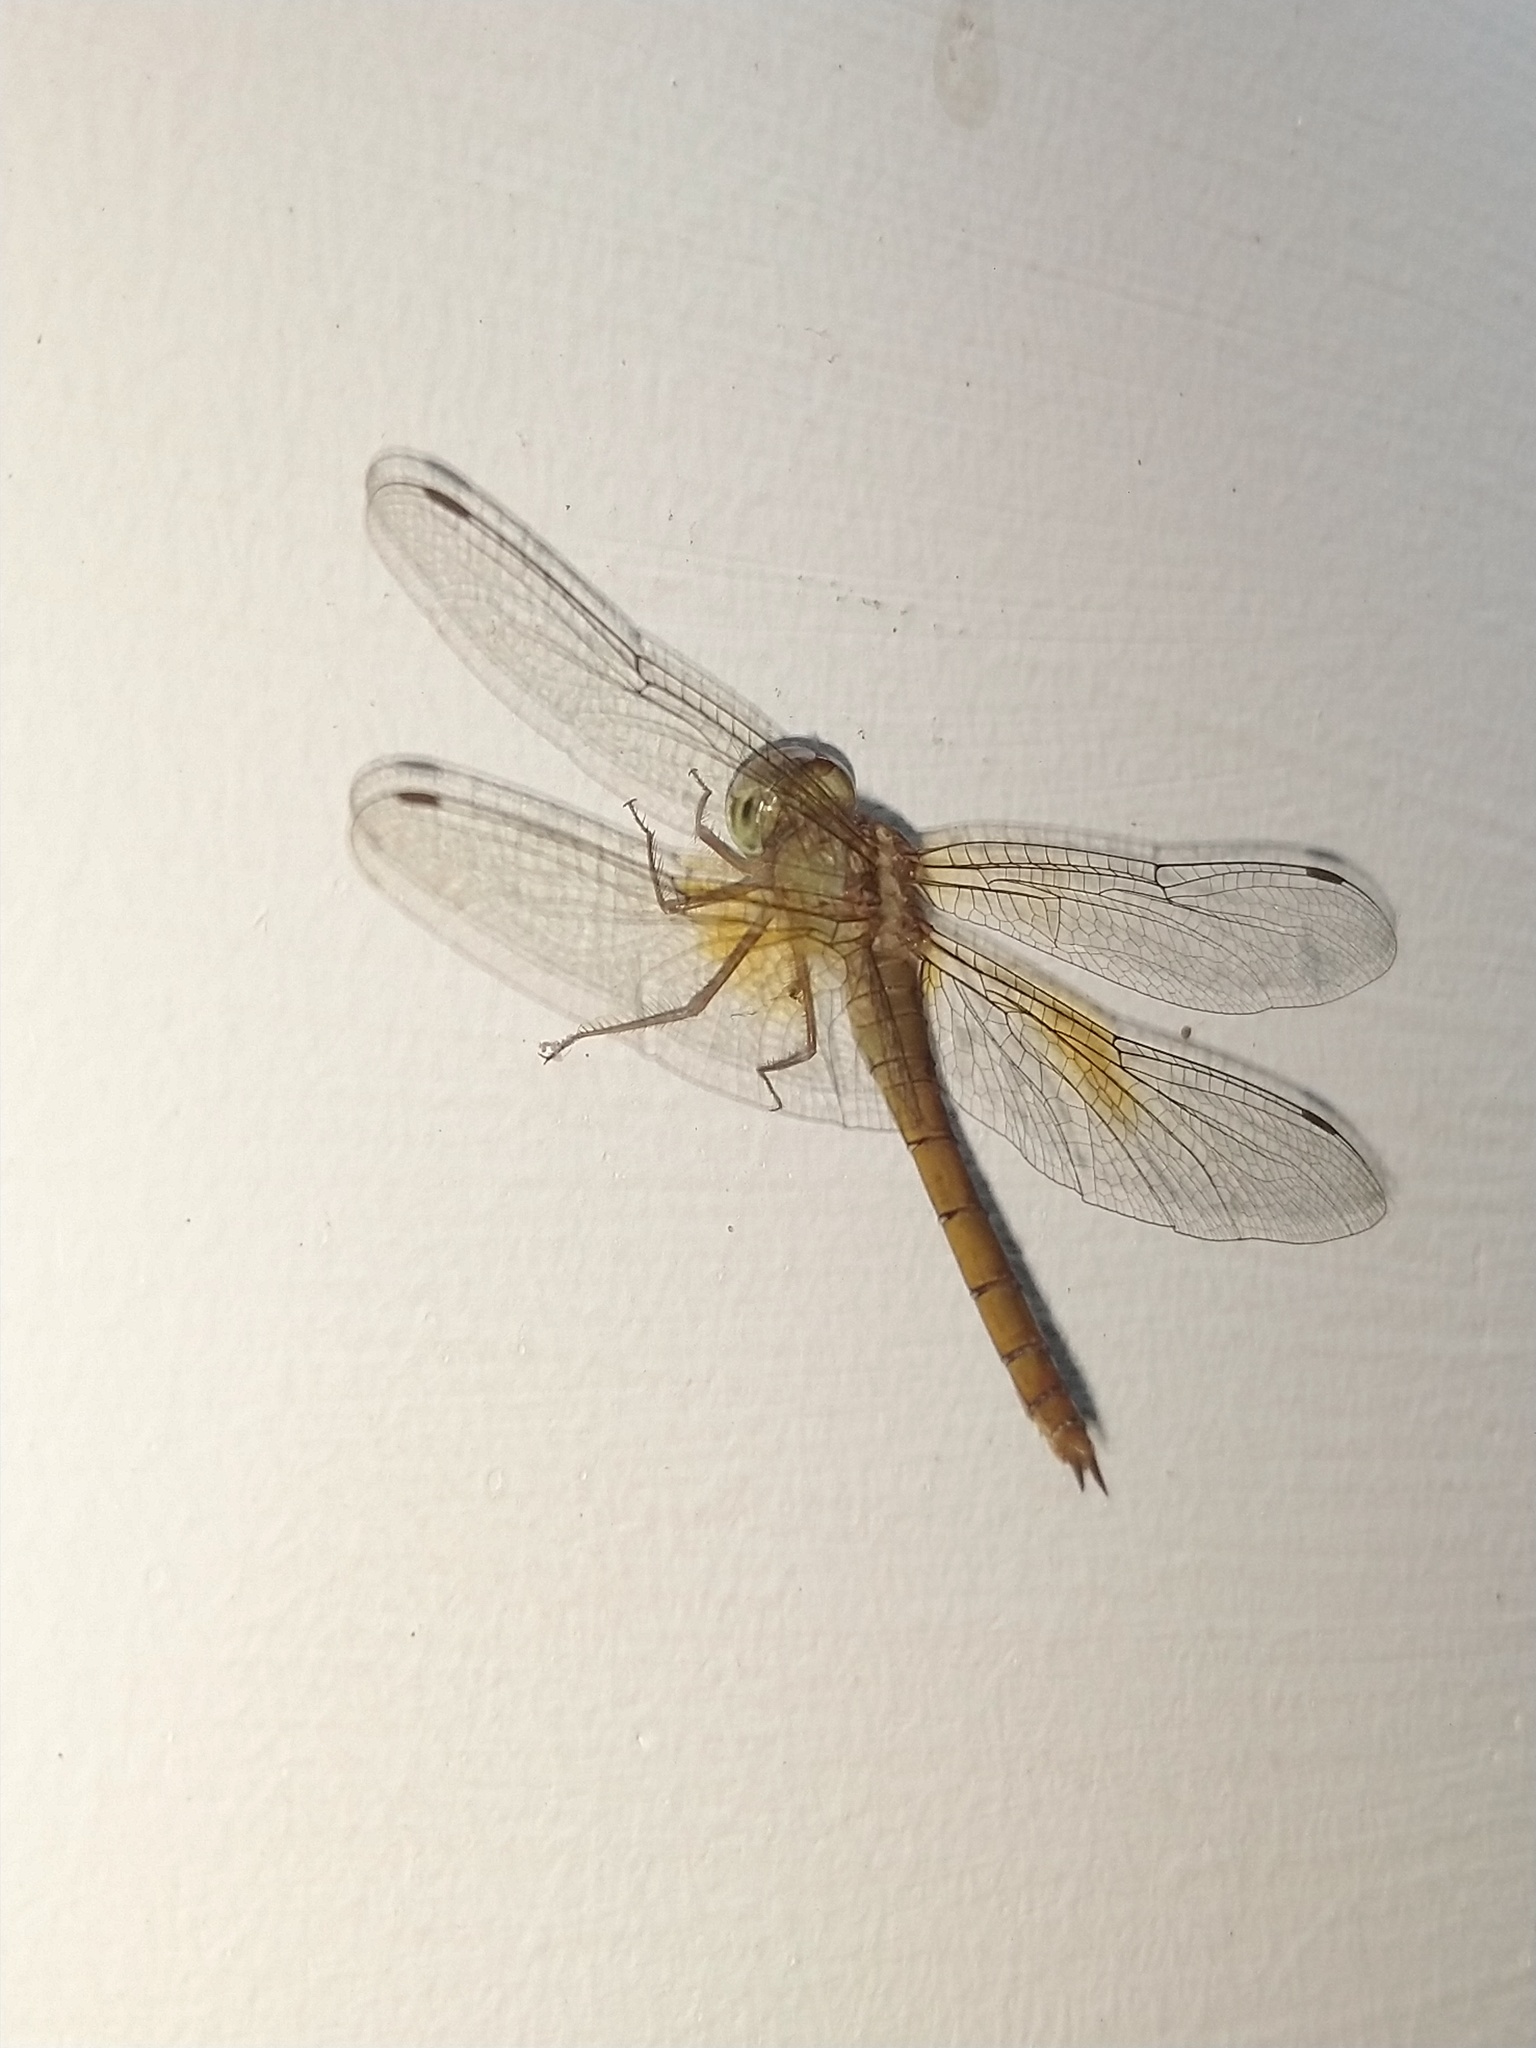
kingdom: Animalia
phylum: Arthropoda
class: Insecta
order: Odonata
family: Libellulidae
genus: Tholymis
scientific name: Tholymis tillarga
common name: Coral-tailed cloud wing
